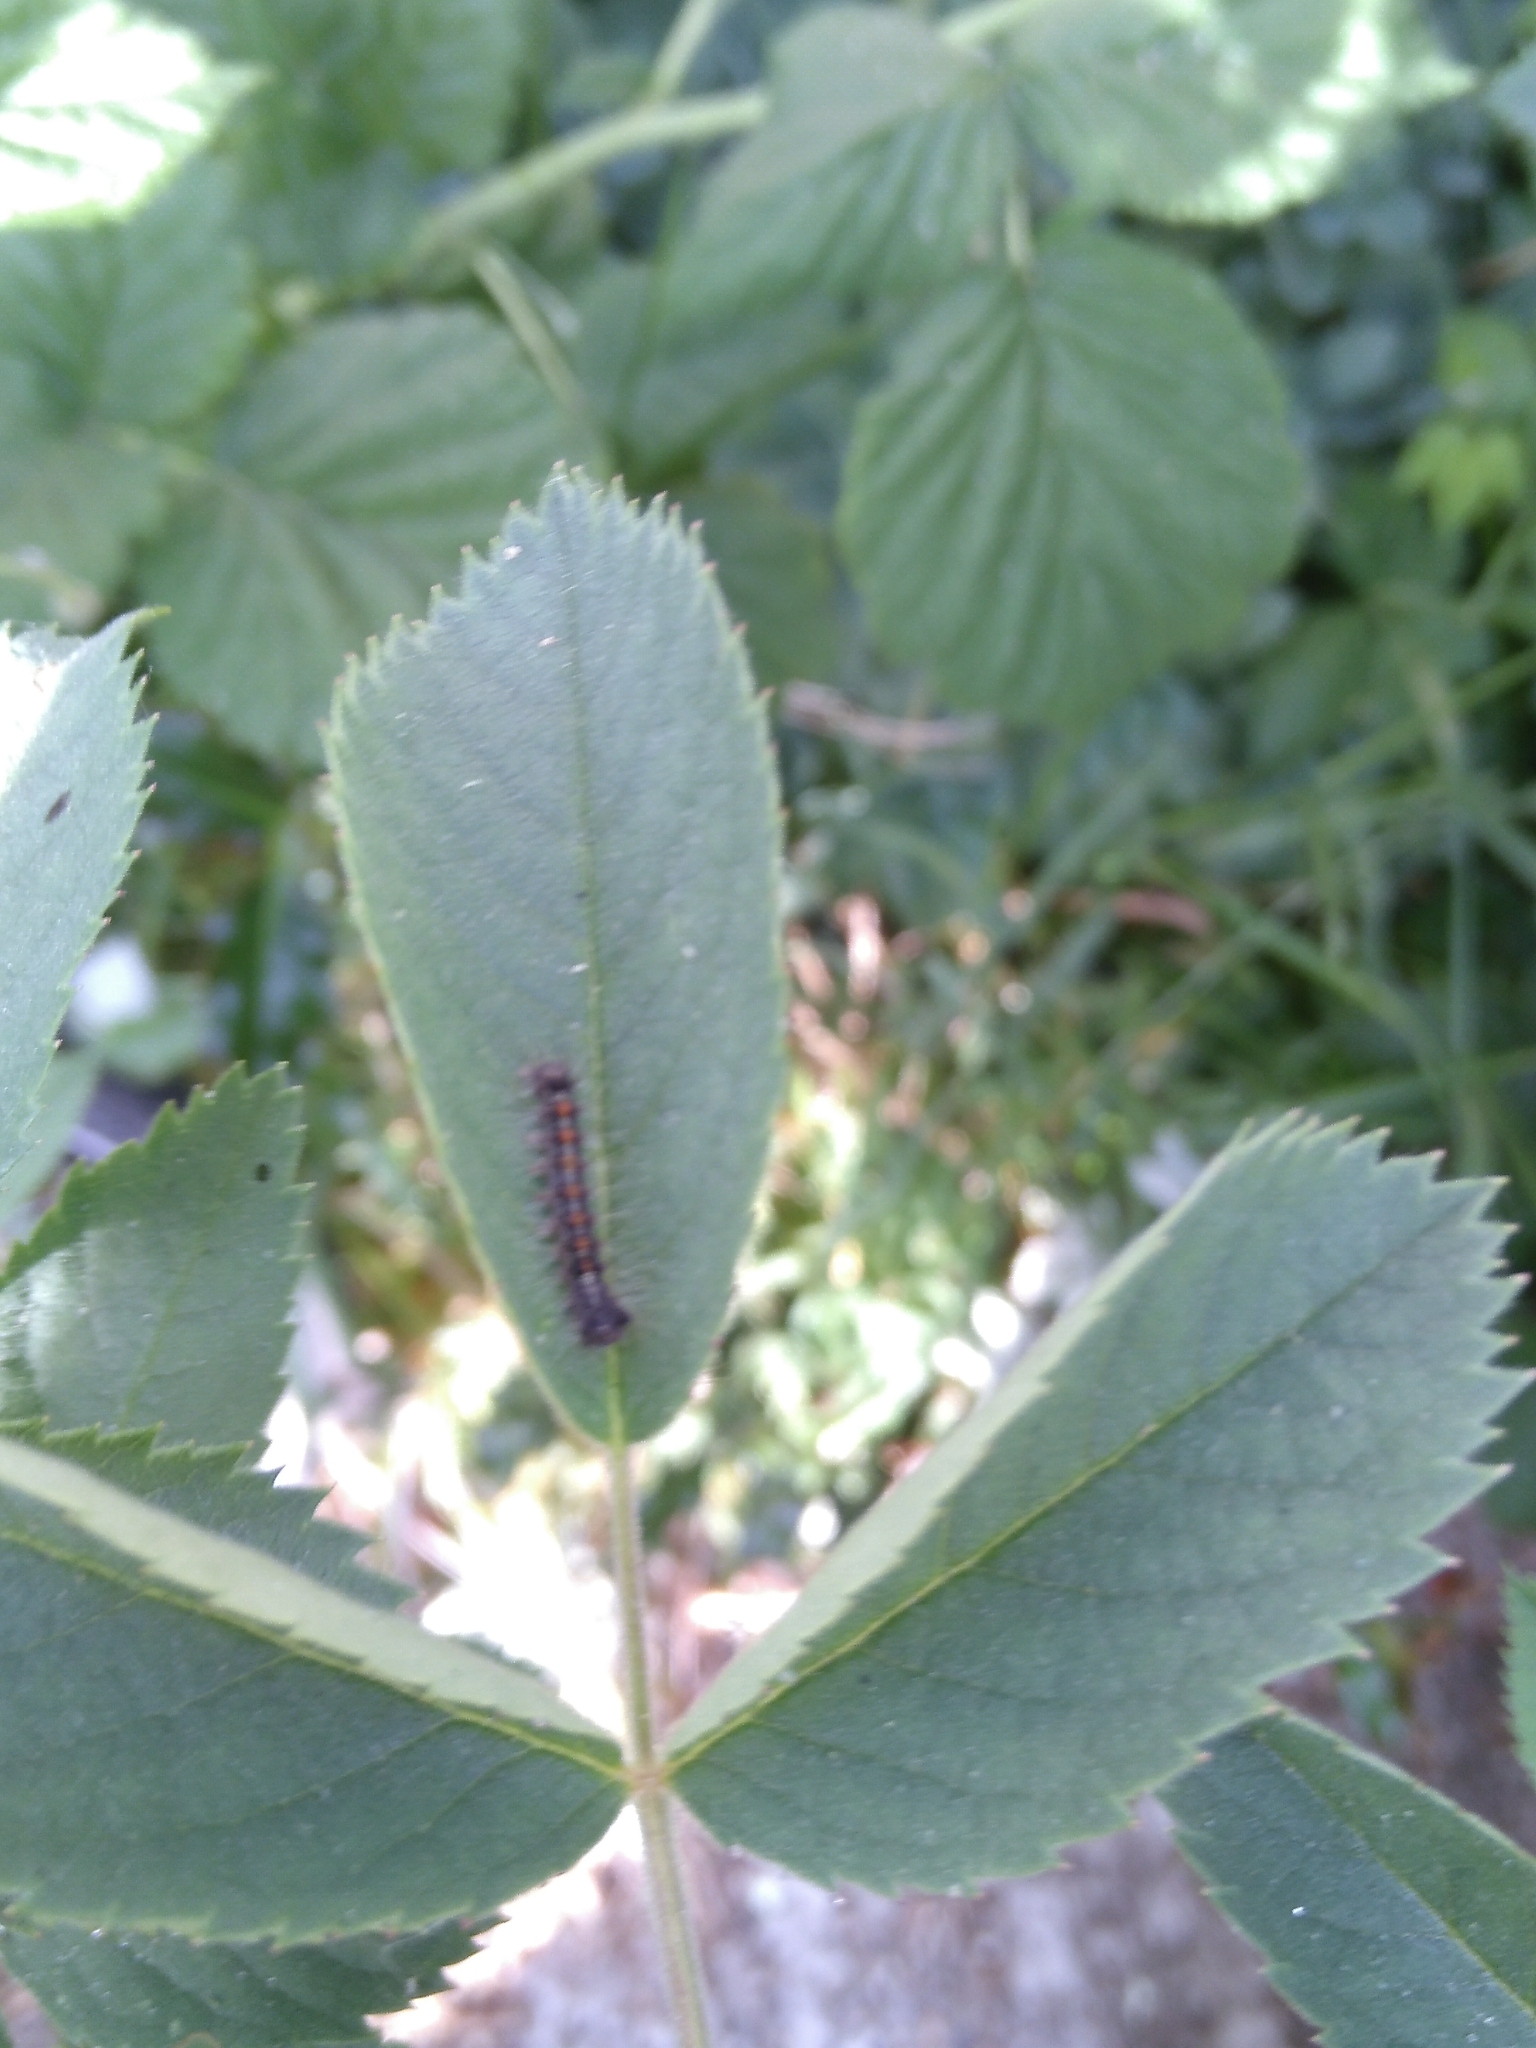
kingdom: Animalia
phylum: Arthropoda
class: Insecta
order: Lepidoptera
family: Erebidae
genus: Lymantria
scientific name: Lymantria dispar
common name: Gypsy moth
